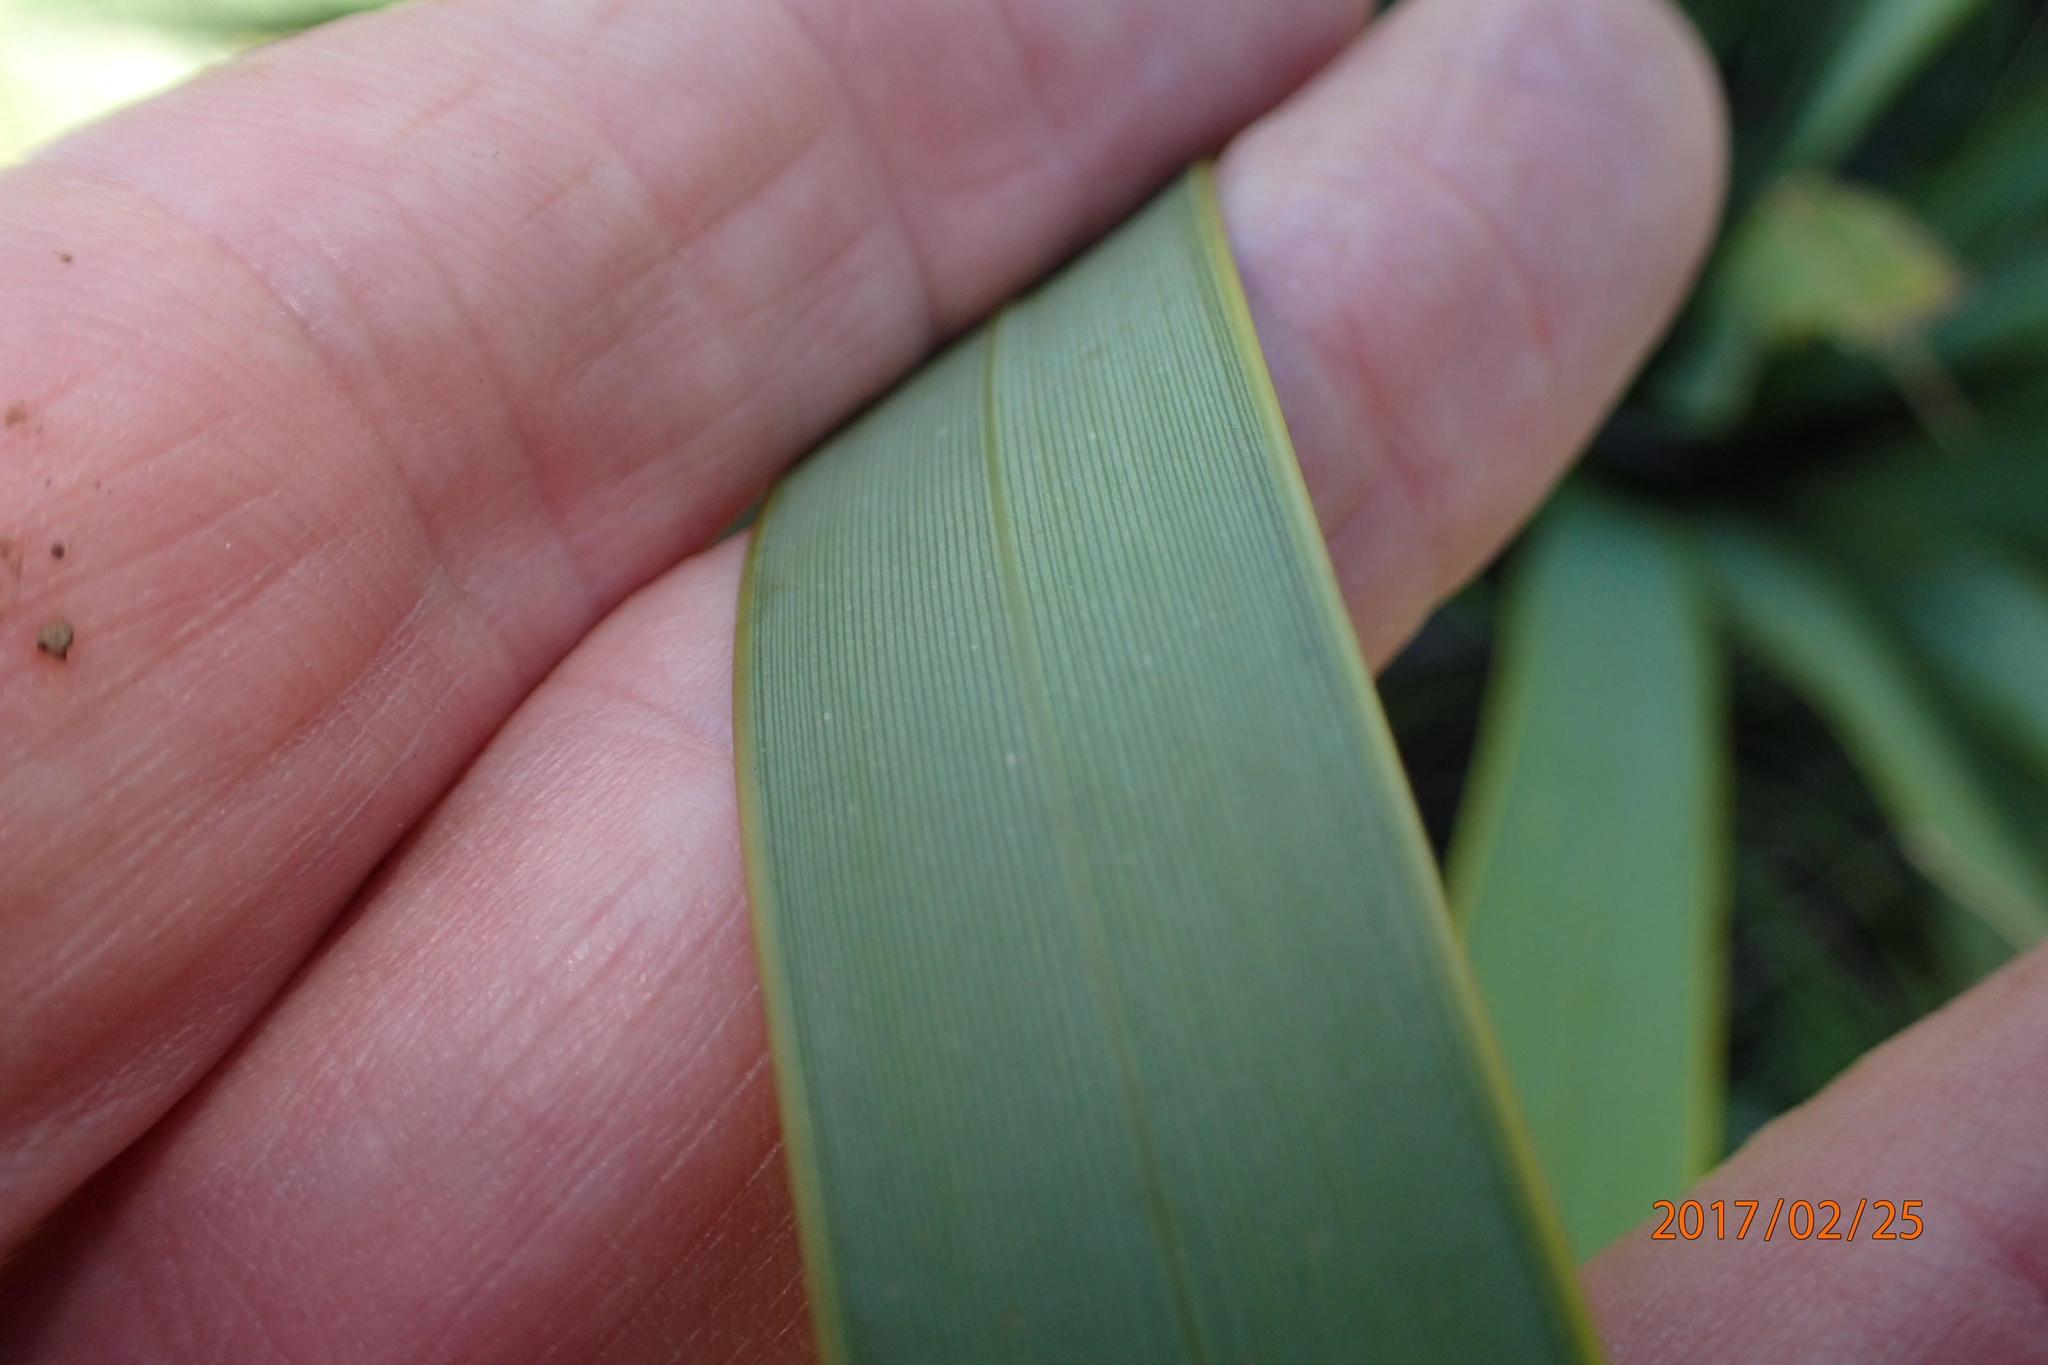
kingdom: Plantae
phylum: Tracheophyta
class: Liliopsida
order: Asparagales
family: Iridaceae
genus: Watsonia
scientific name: Watsonia lepida
